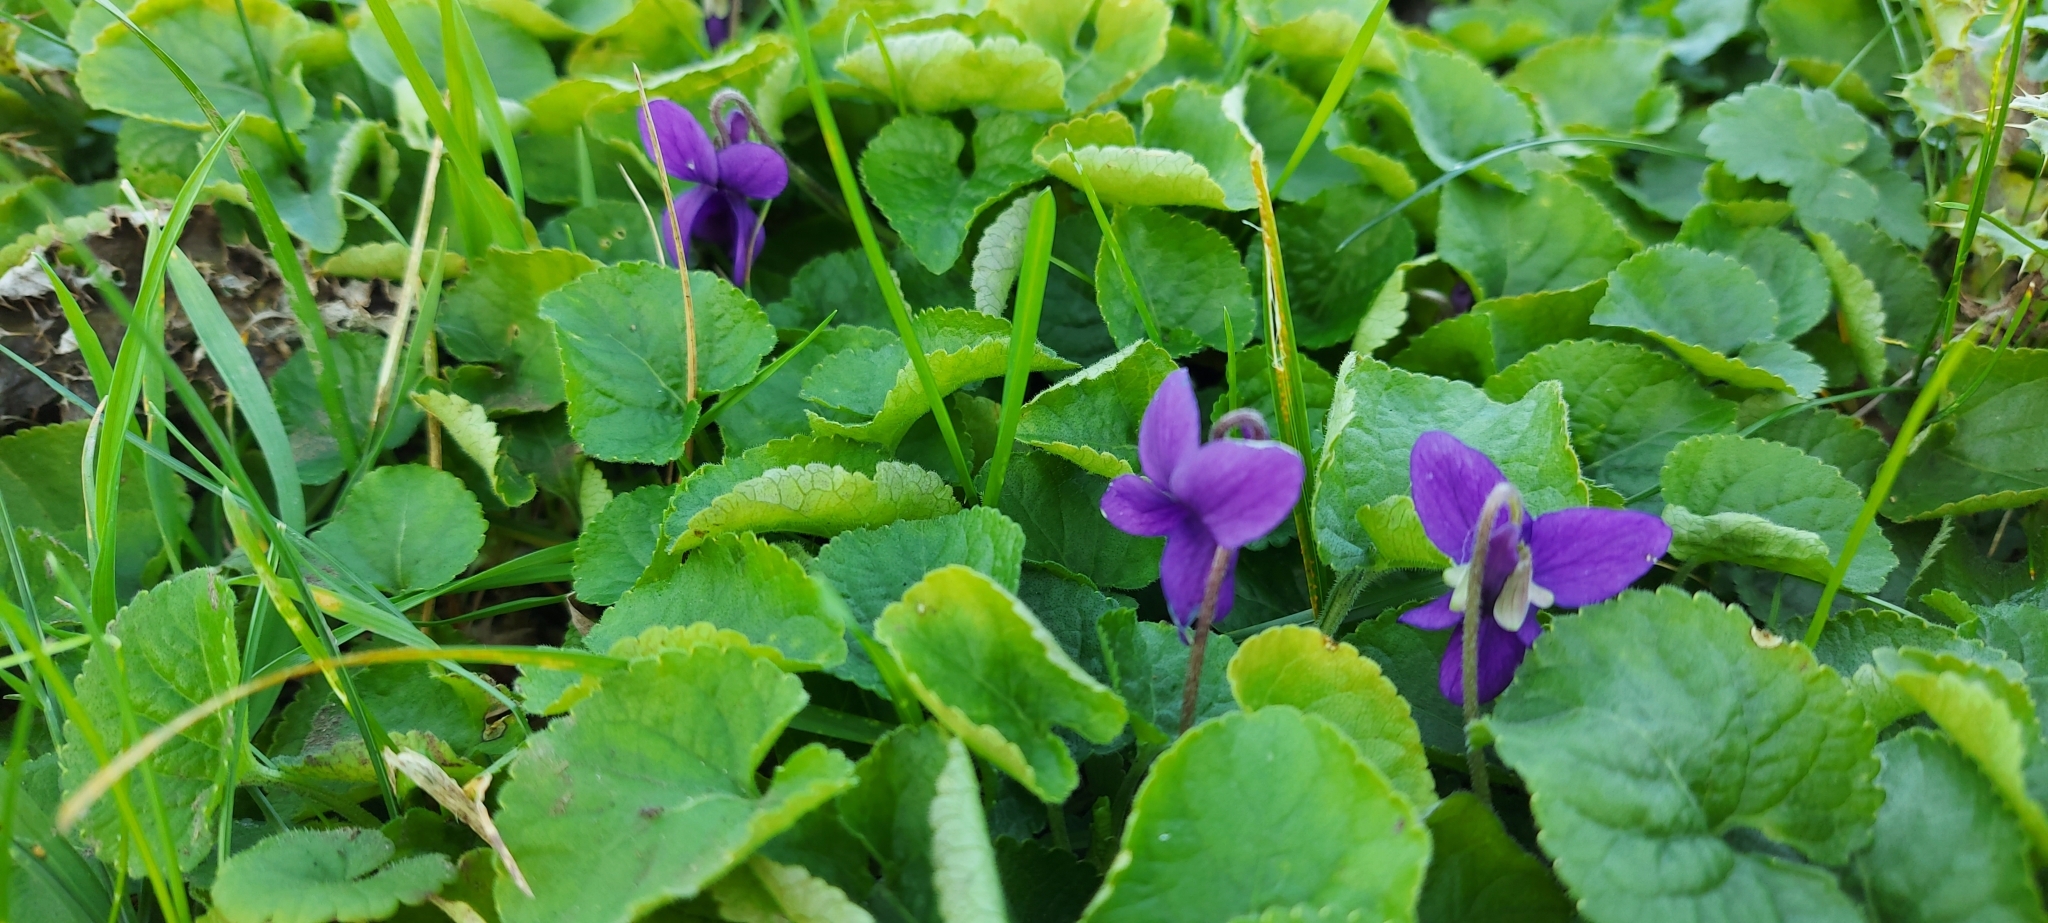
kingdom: Plantae
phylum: Tracheophyta
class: Magnoliopsida
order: Malpighiales
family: Violaceae
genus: Viola
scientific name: Viola odorata
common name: Sweet violet
